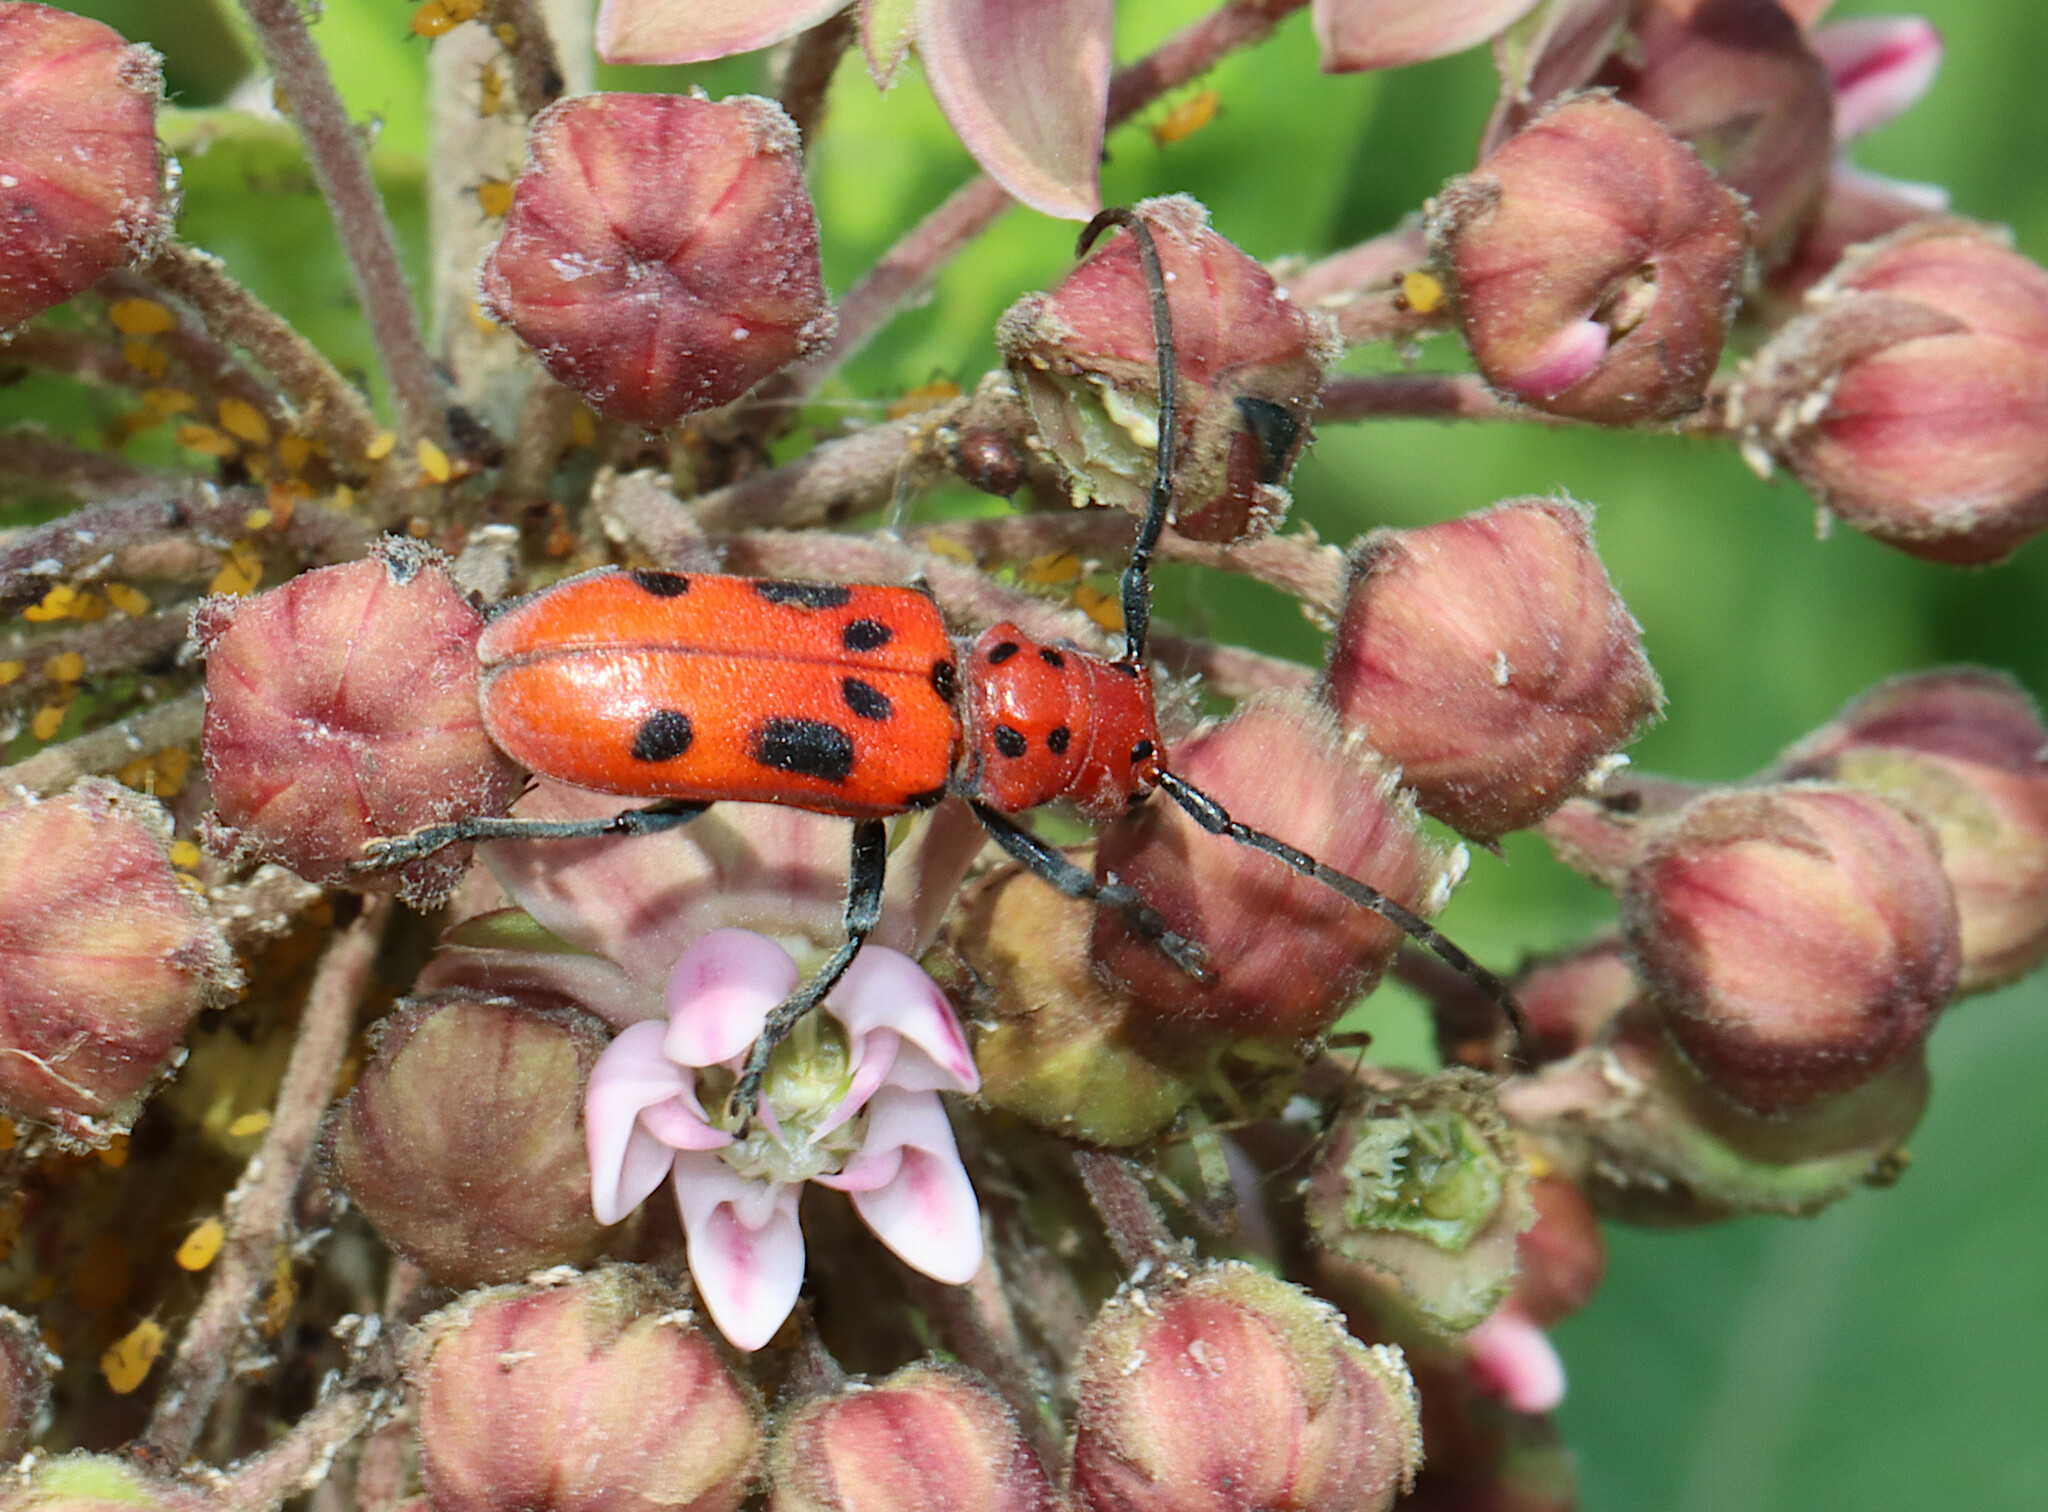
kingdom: Animalia
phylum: Arthropoda
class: Insecta
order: Coleoptera
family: Cerambycidae
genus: Tetraopes
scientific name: Tetraopes tetrophthalmus
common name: Red milkweed beetle
